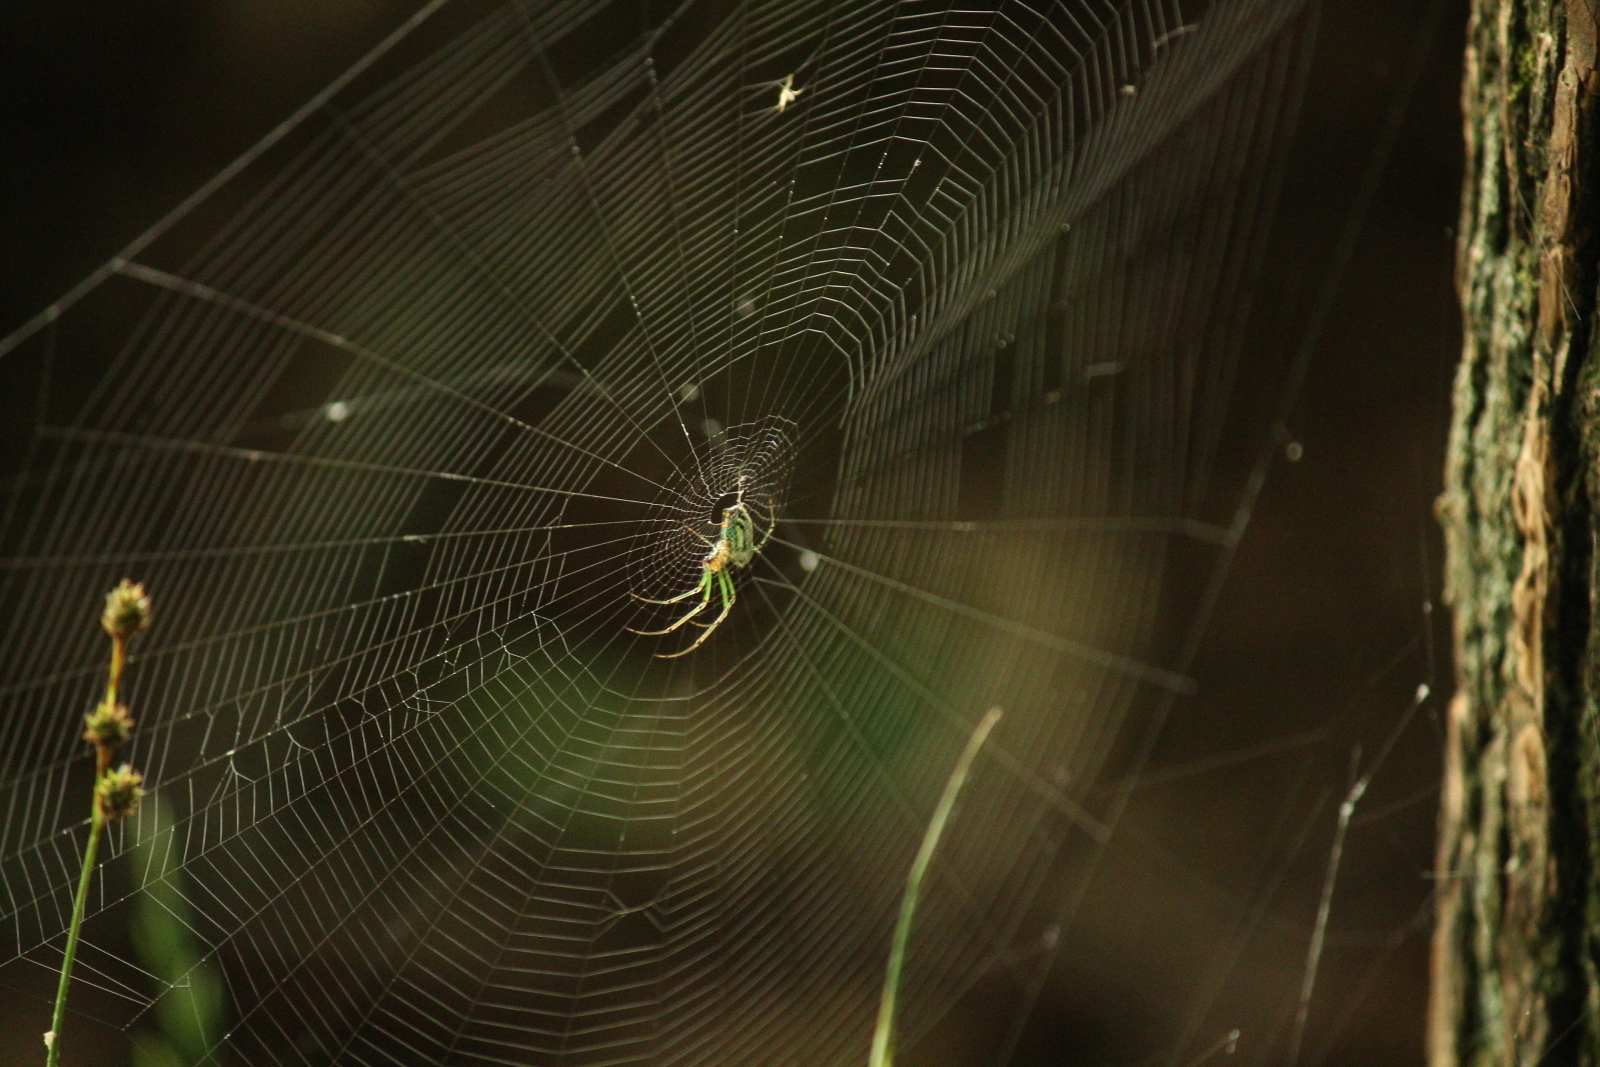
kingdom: Animalia
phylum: Arthropoda
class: Arachnida
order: Araneae
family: Tetragnathidae
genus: Leucauge
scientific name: Leucauge venusta
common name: Longjawed orb weavers
